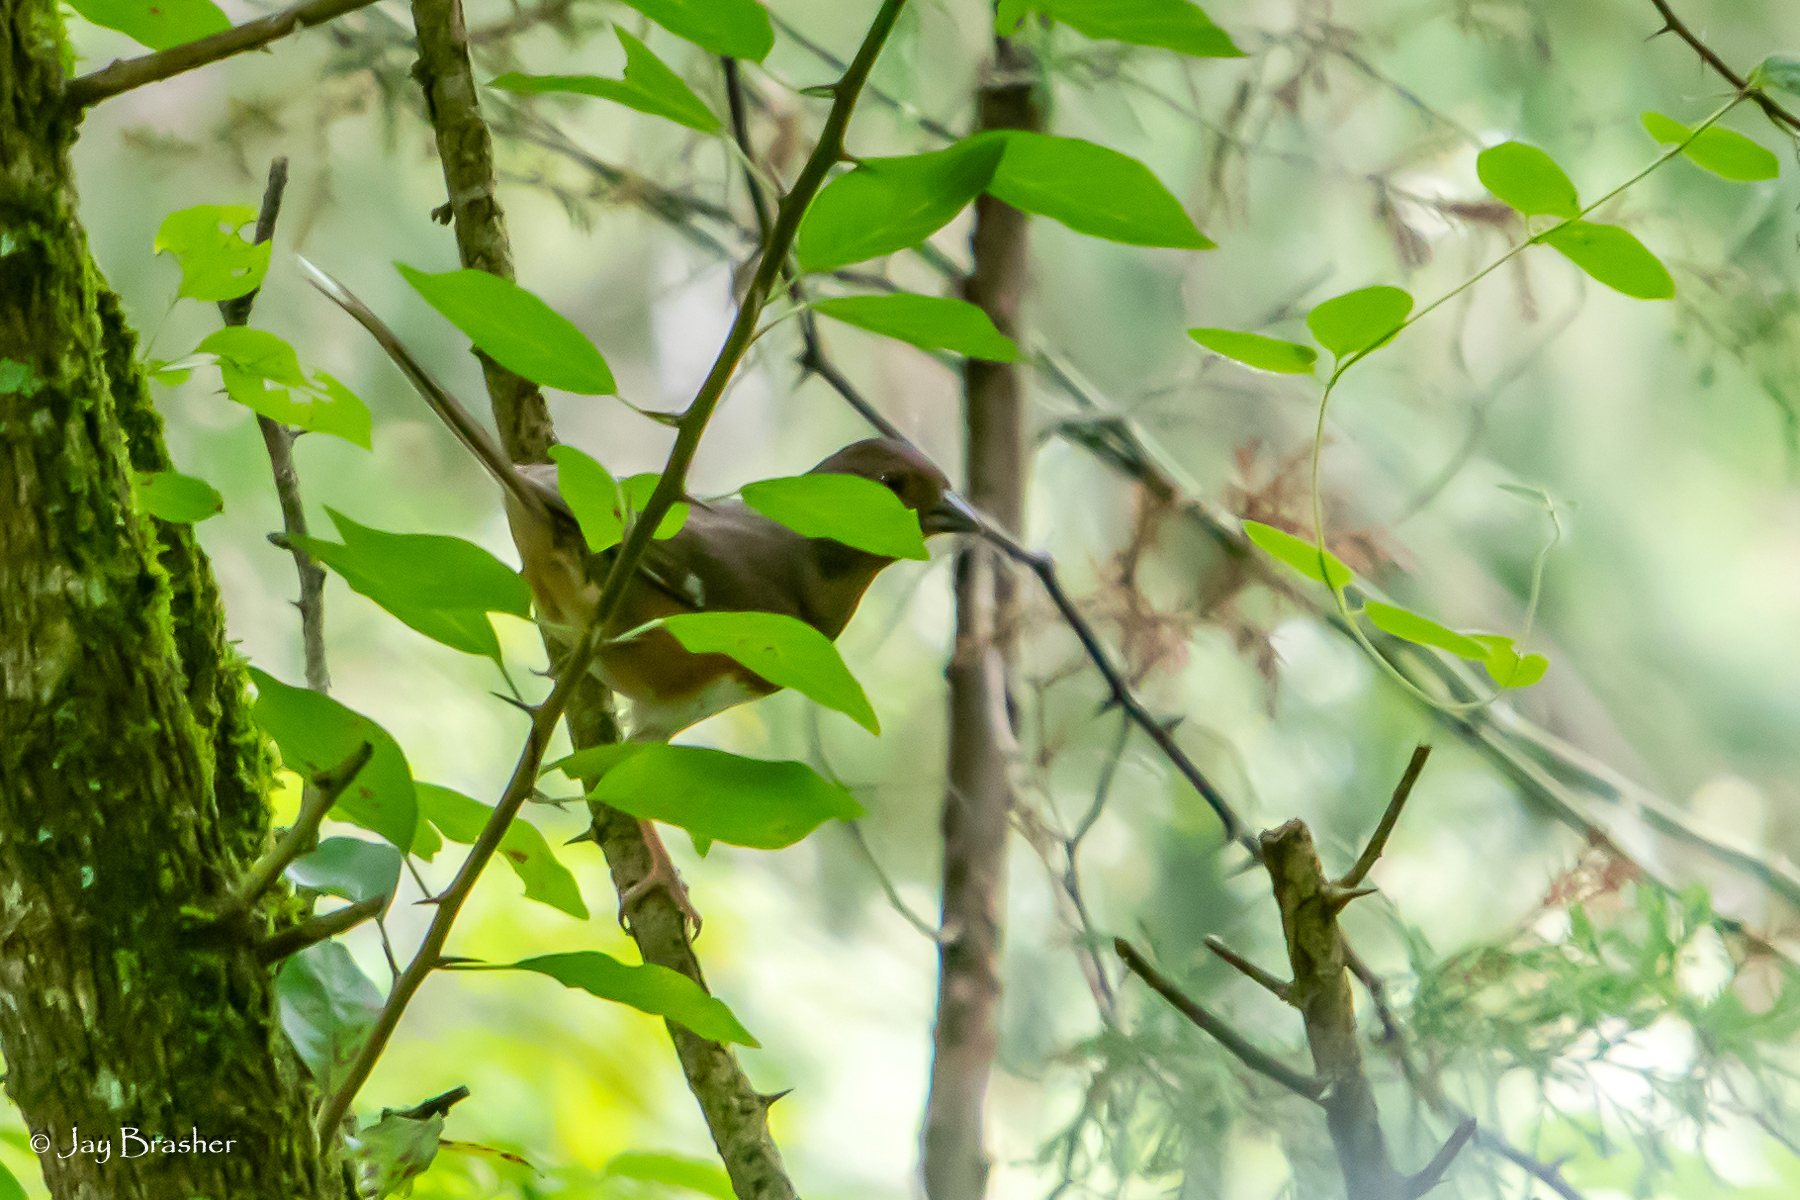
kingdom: Animalia
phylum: Chordata
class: Aves
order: Passeriformes
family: Passerellidae
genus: Pipilo
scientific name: Pipilo erythrophthalmus
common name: Eastern towhee
